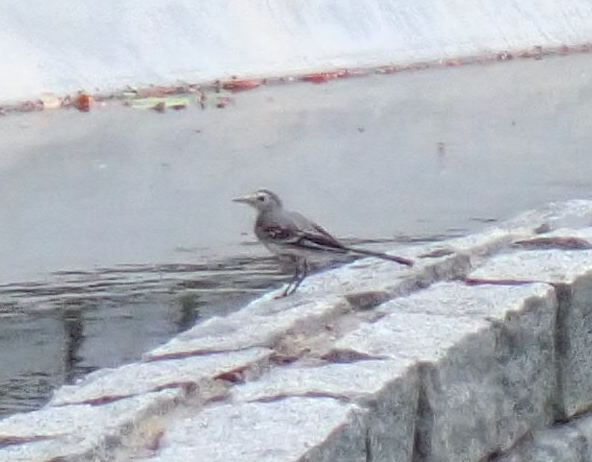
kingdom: Animalia
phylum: Chordata
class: Aves
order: Passeriformes
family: Motacillidae
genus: Motacilla
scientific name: Motacilla alba
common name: White wagtail
